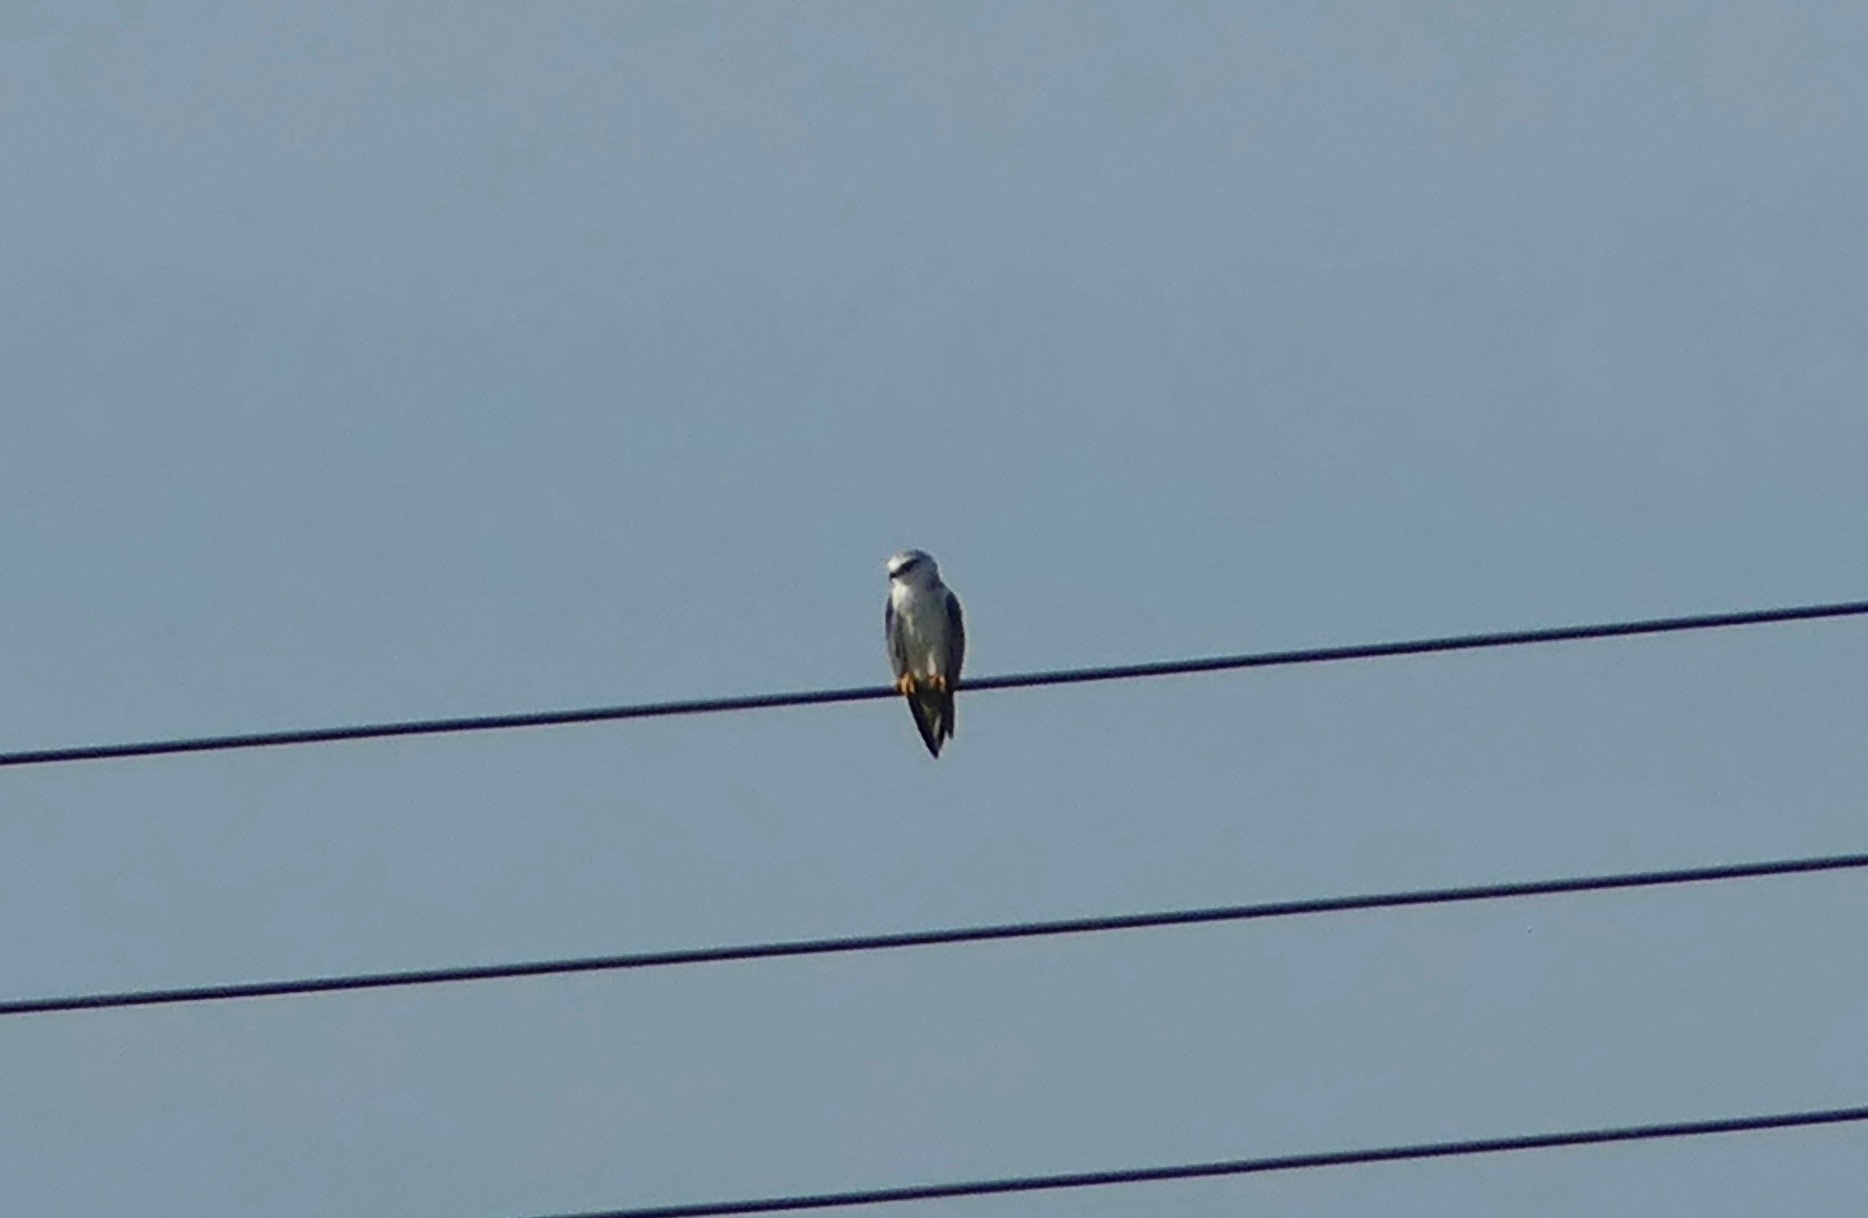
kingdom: Animalia
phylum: Chordata
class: Aves
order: Accipitriformes
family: Accipitridae
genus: Elanus
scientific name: Elanus caeruleus
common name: Black-winged kite
